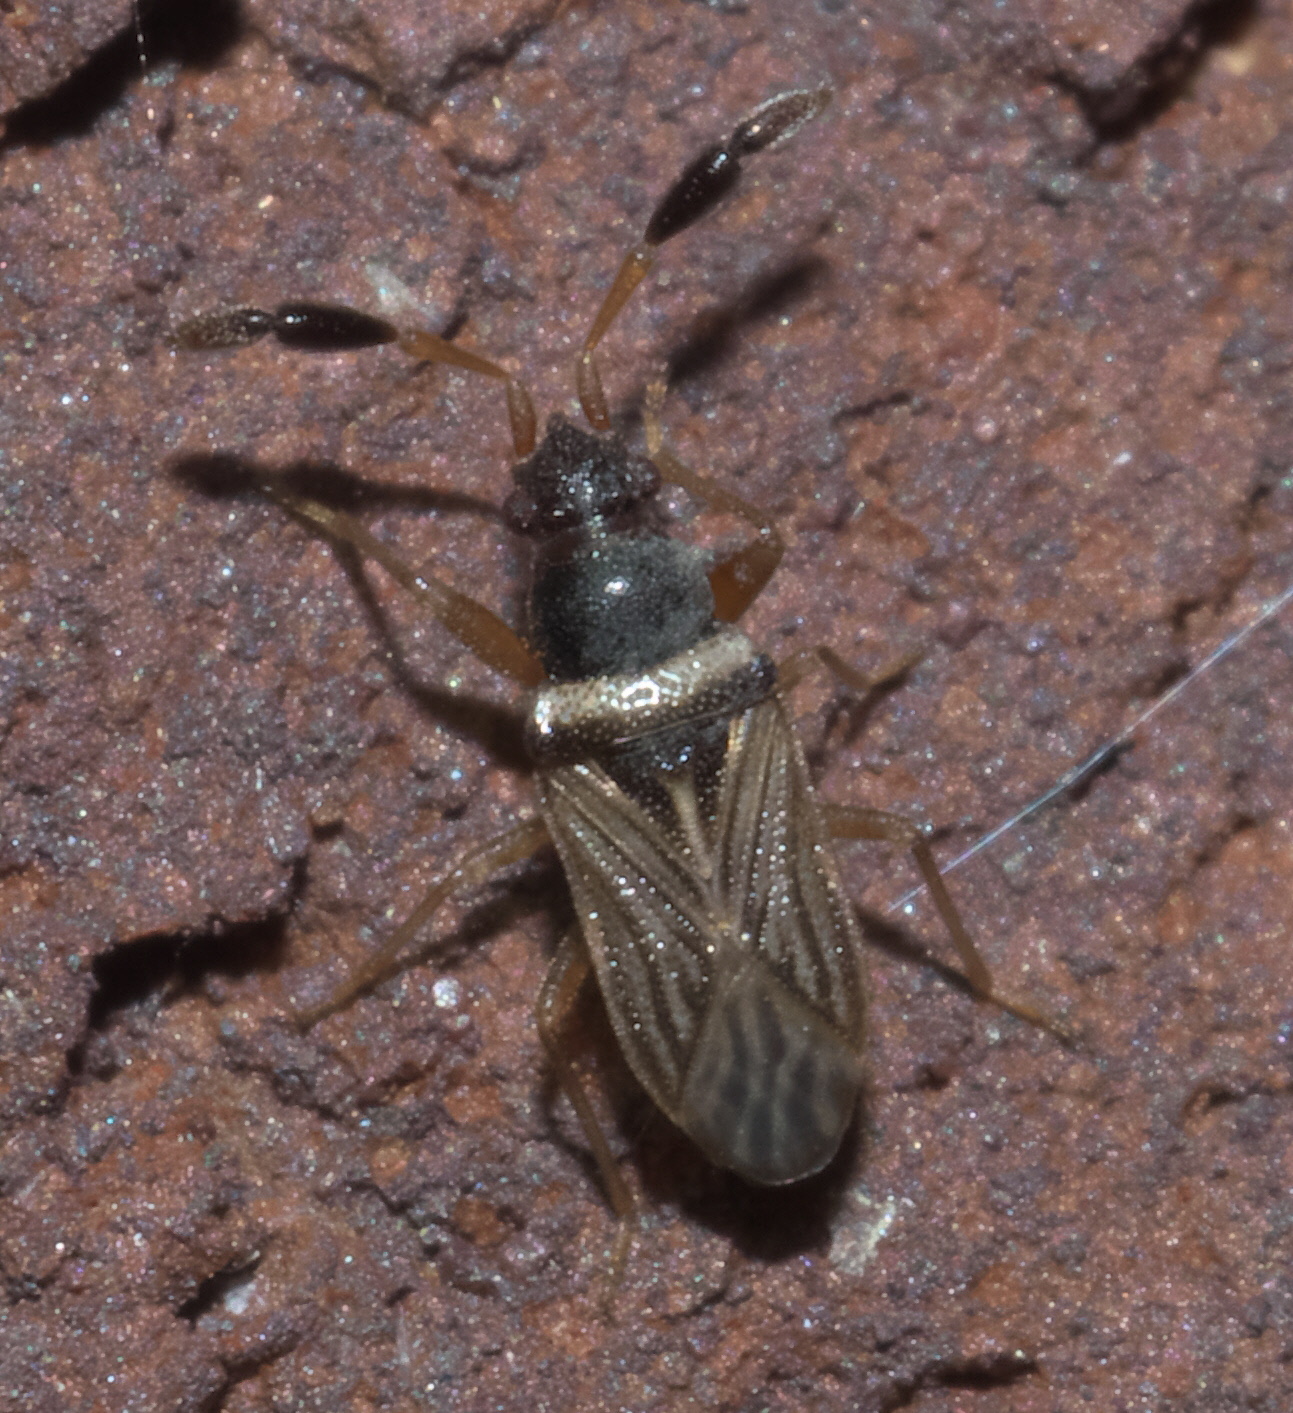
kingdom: Animalia
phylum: Arthropoda
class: Insecta
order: Hemiptera
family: Rhyparochromidae
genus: Ptochiomera
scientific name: Ptochiomera nodosa
